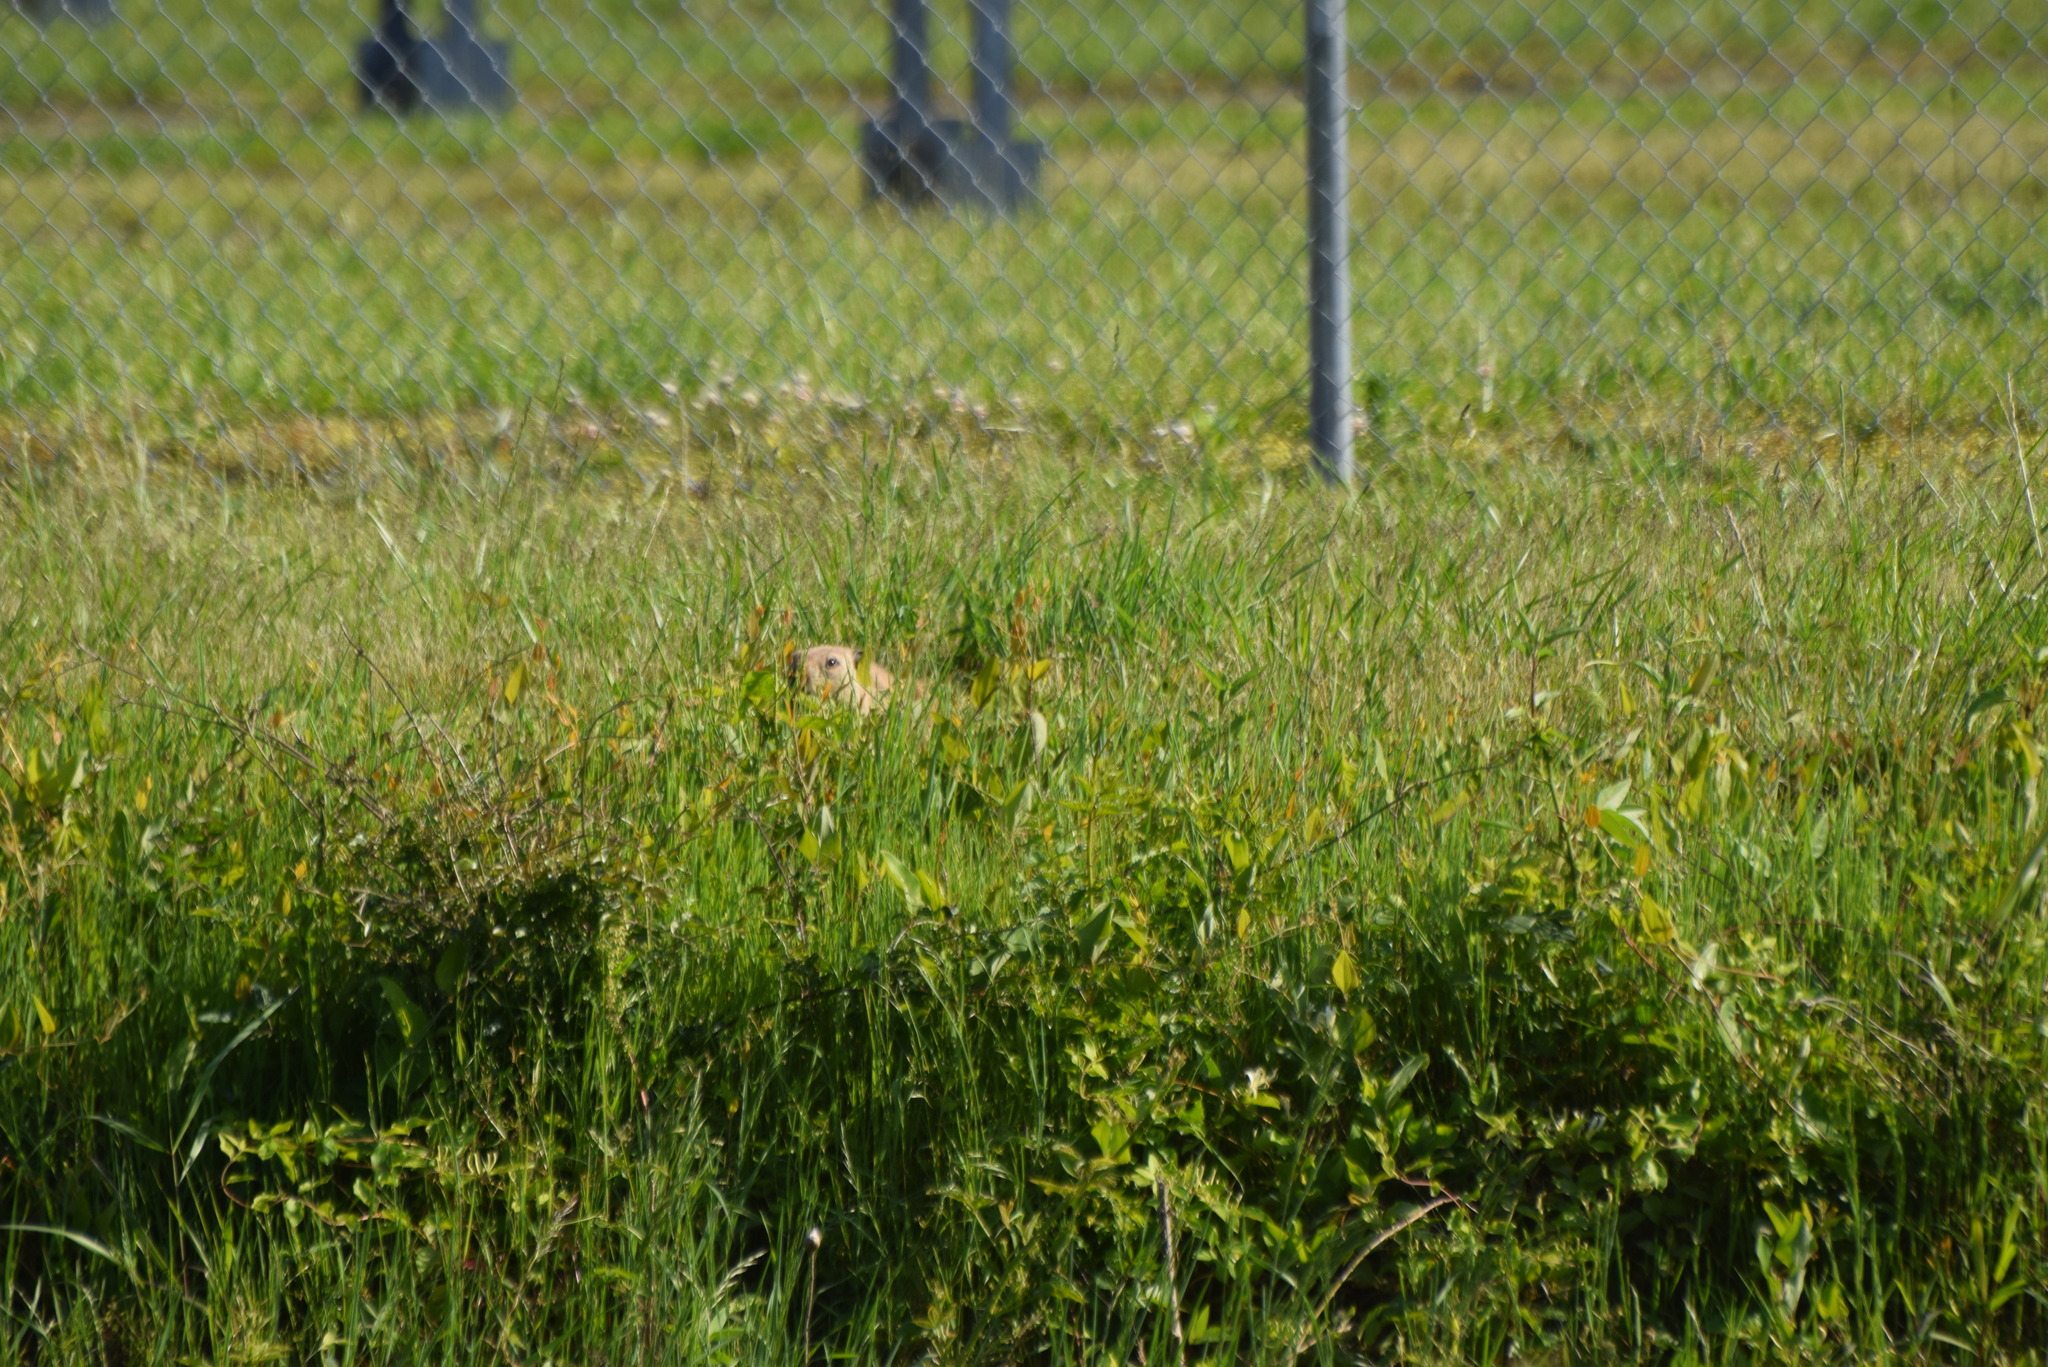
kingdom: Animalia
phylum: Chordata
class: Mammalia
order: Rodentia
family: Sciuridae
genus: Marmota
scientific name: Marmota monax
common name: Groundhog
